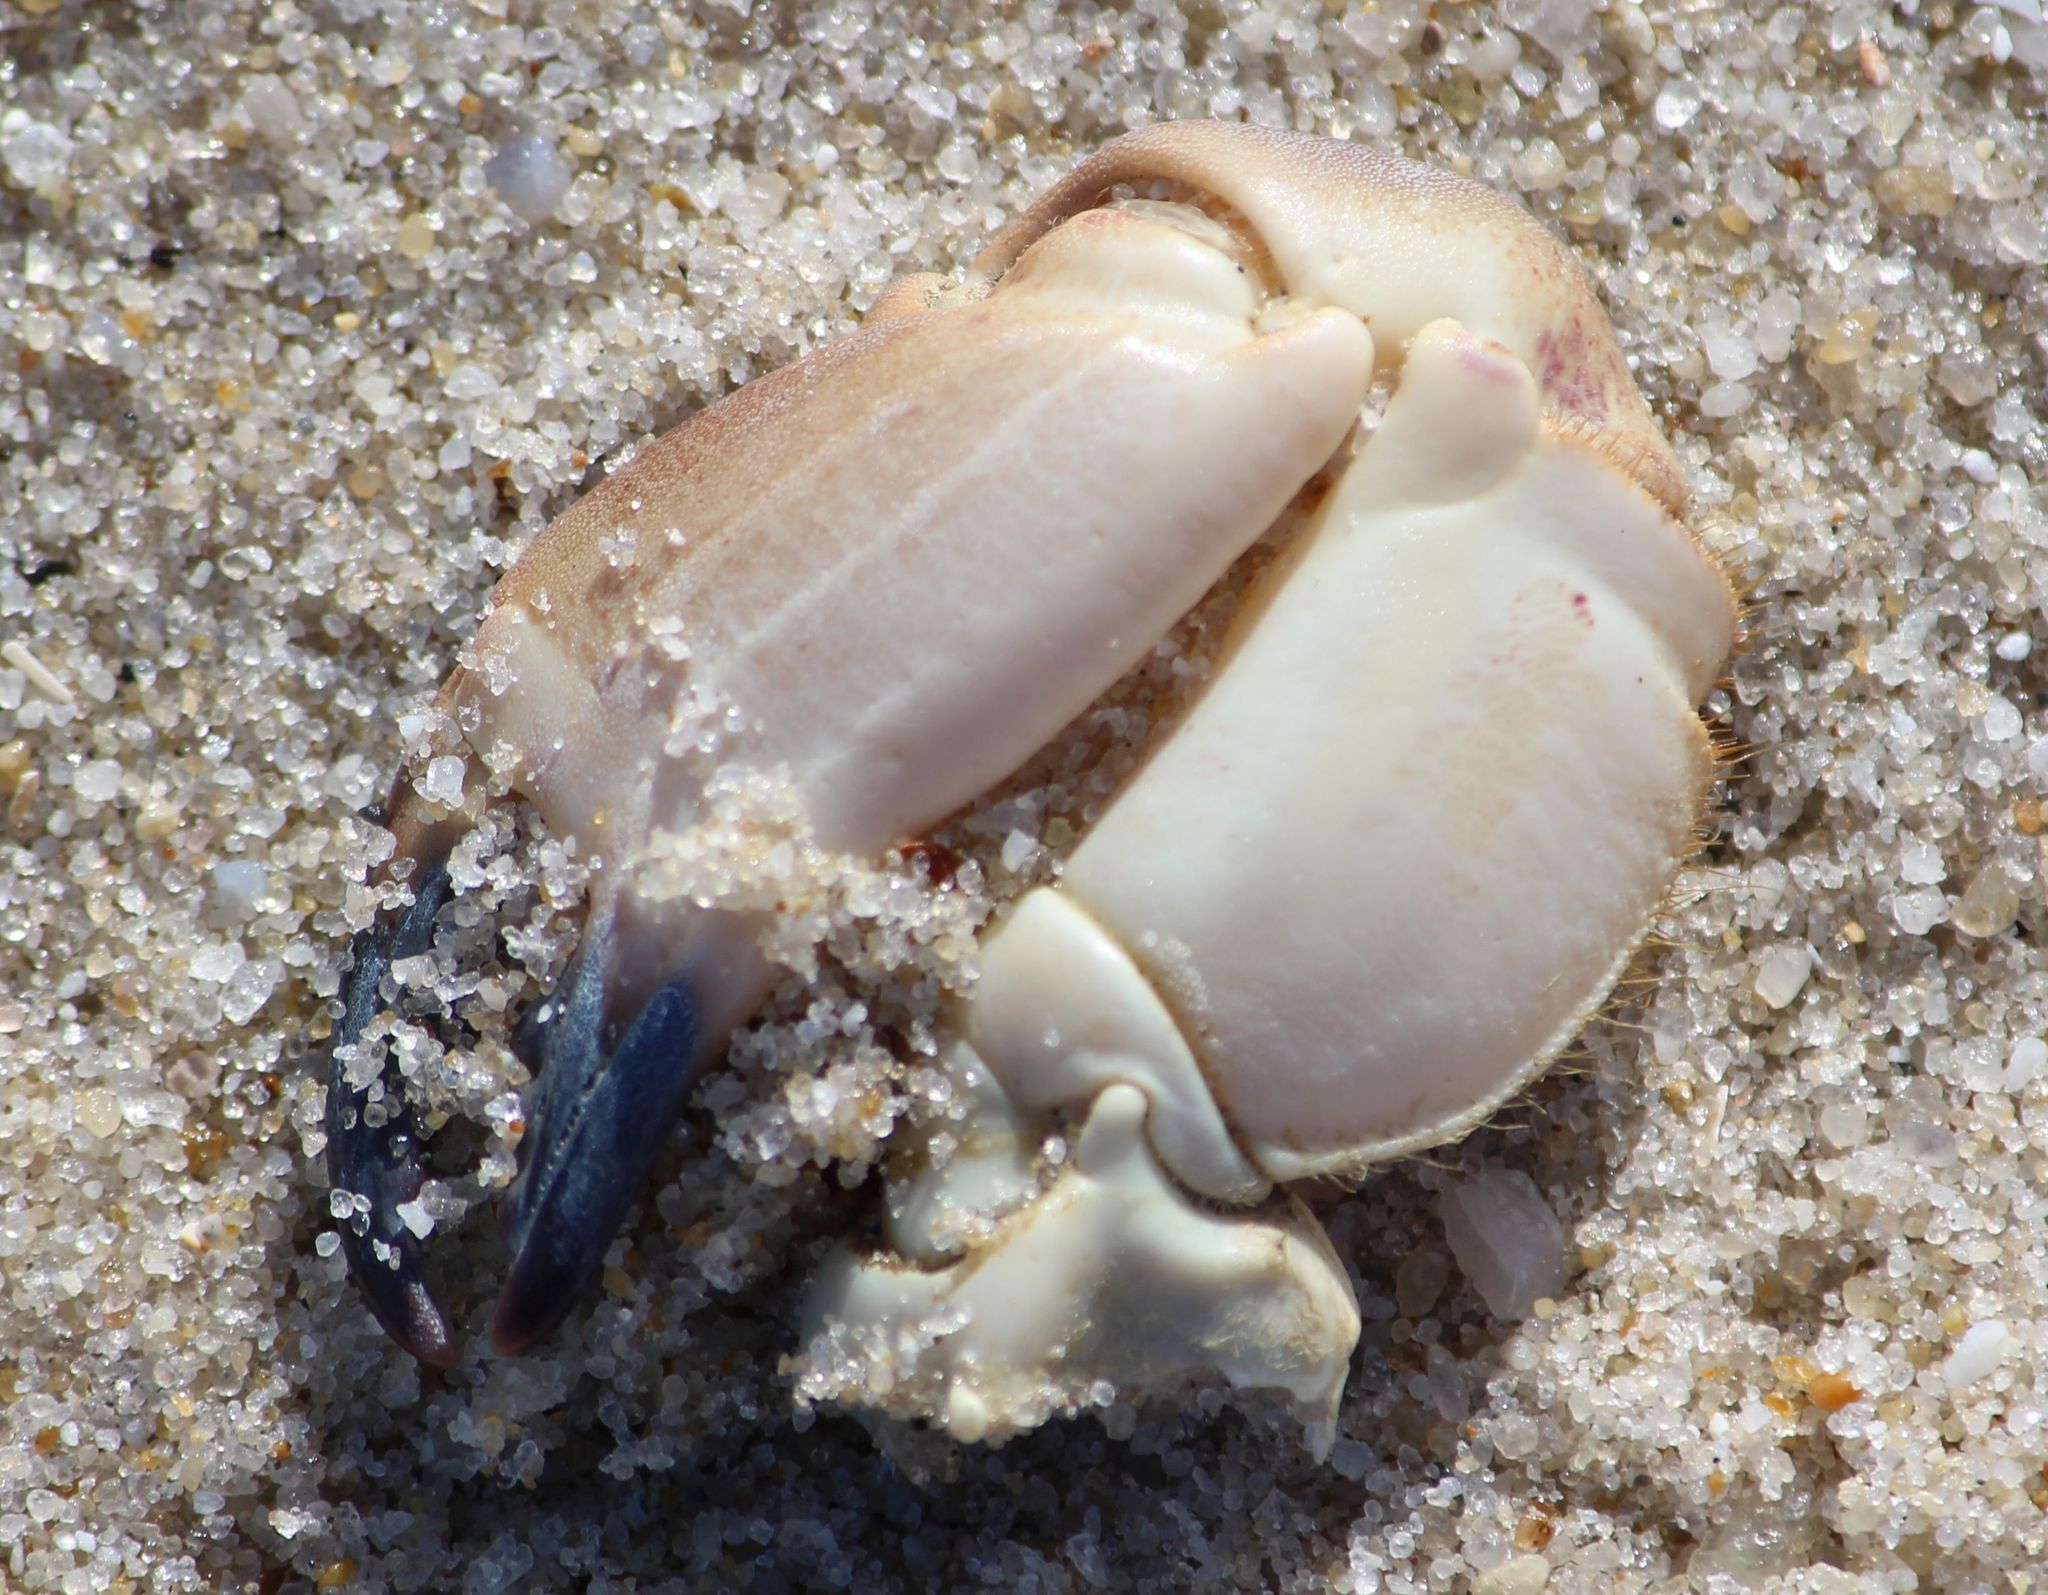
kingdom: Animalia
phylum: Arthropoda
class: Malacostraca
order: Decapoda
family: Cancridae
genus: Cancer
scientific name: Cancer pagurus
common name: Edible crab
